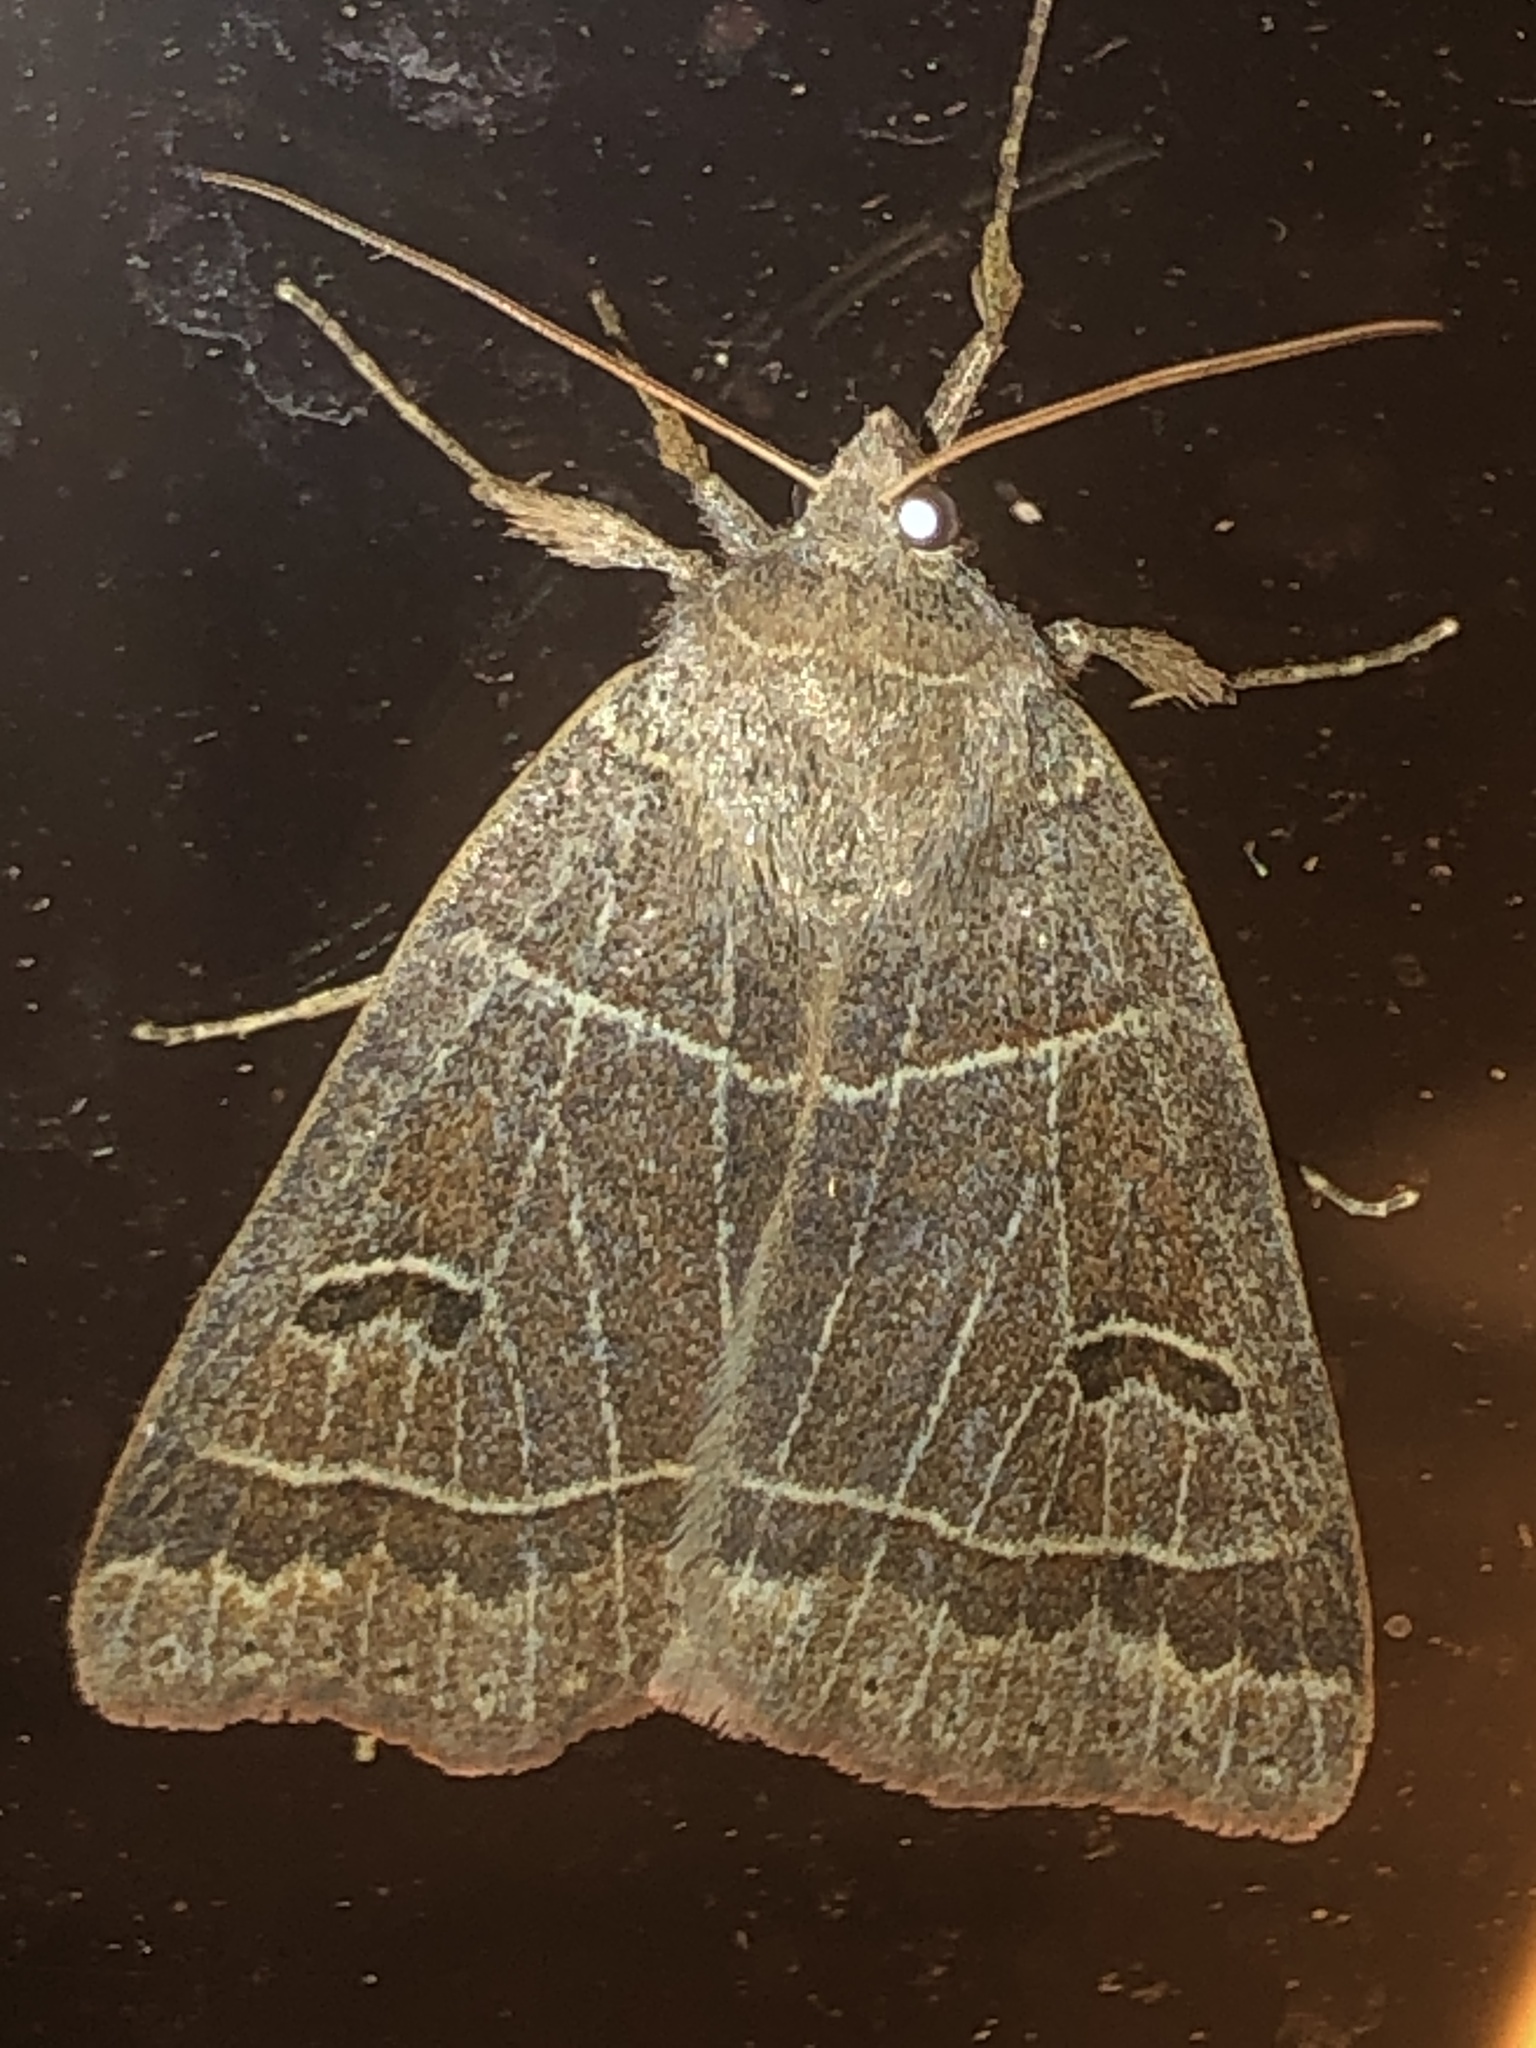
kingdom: Animalia
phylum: Arthropoda
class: Insecta
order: Lepidoptera
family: Erebidae
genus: Phoberia
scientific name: Phoberia atomaris
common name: Common oak moth
